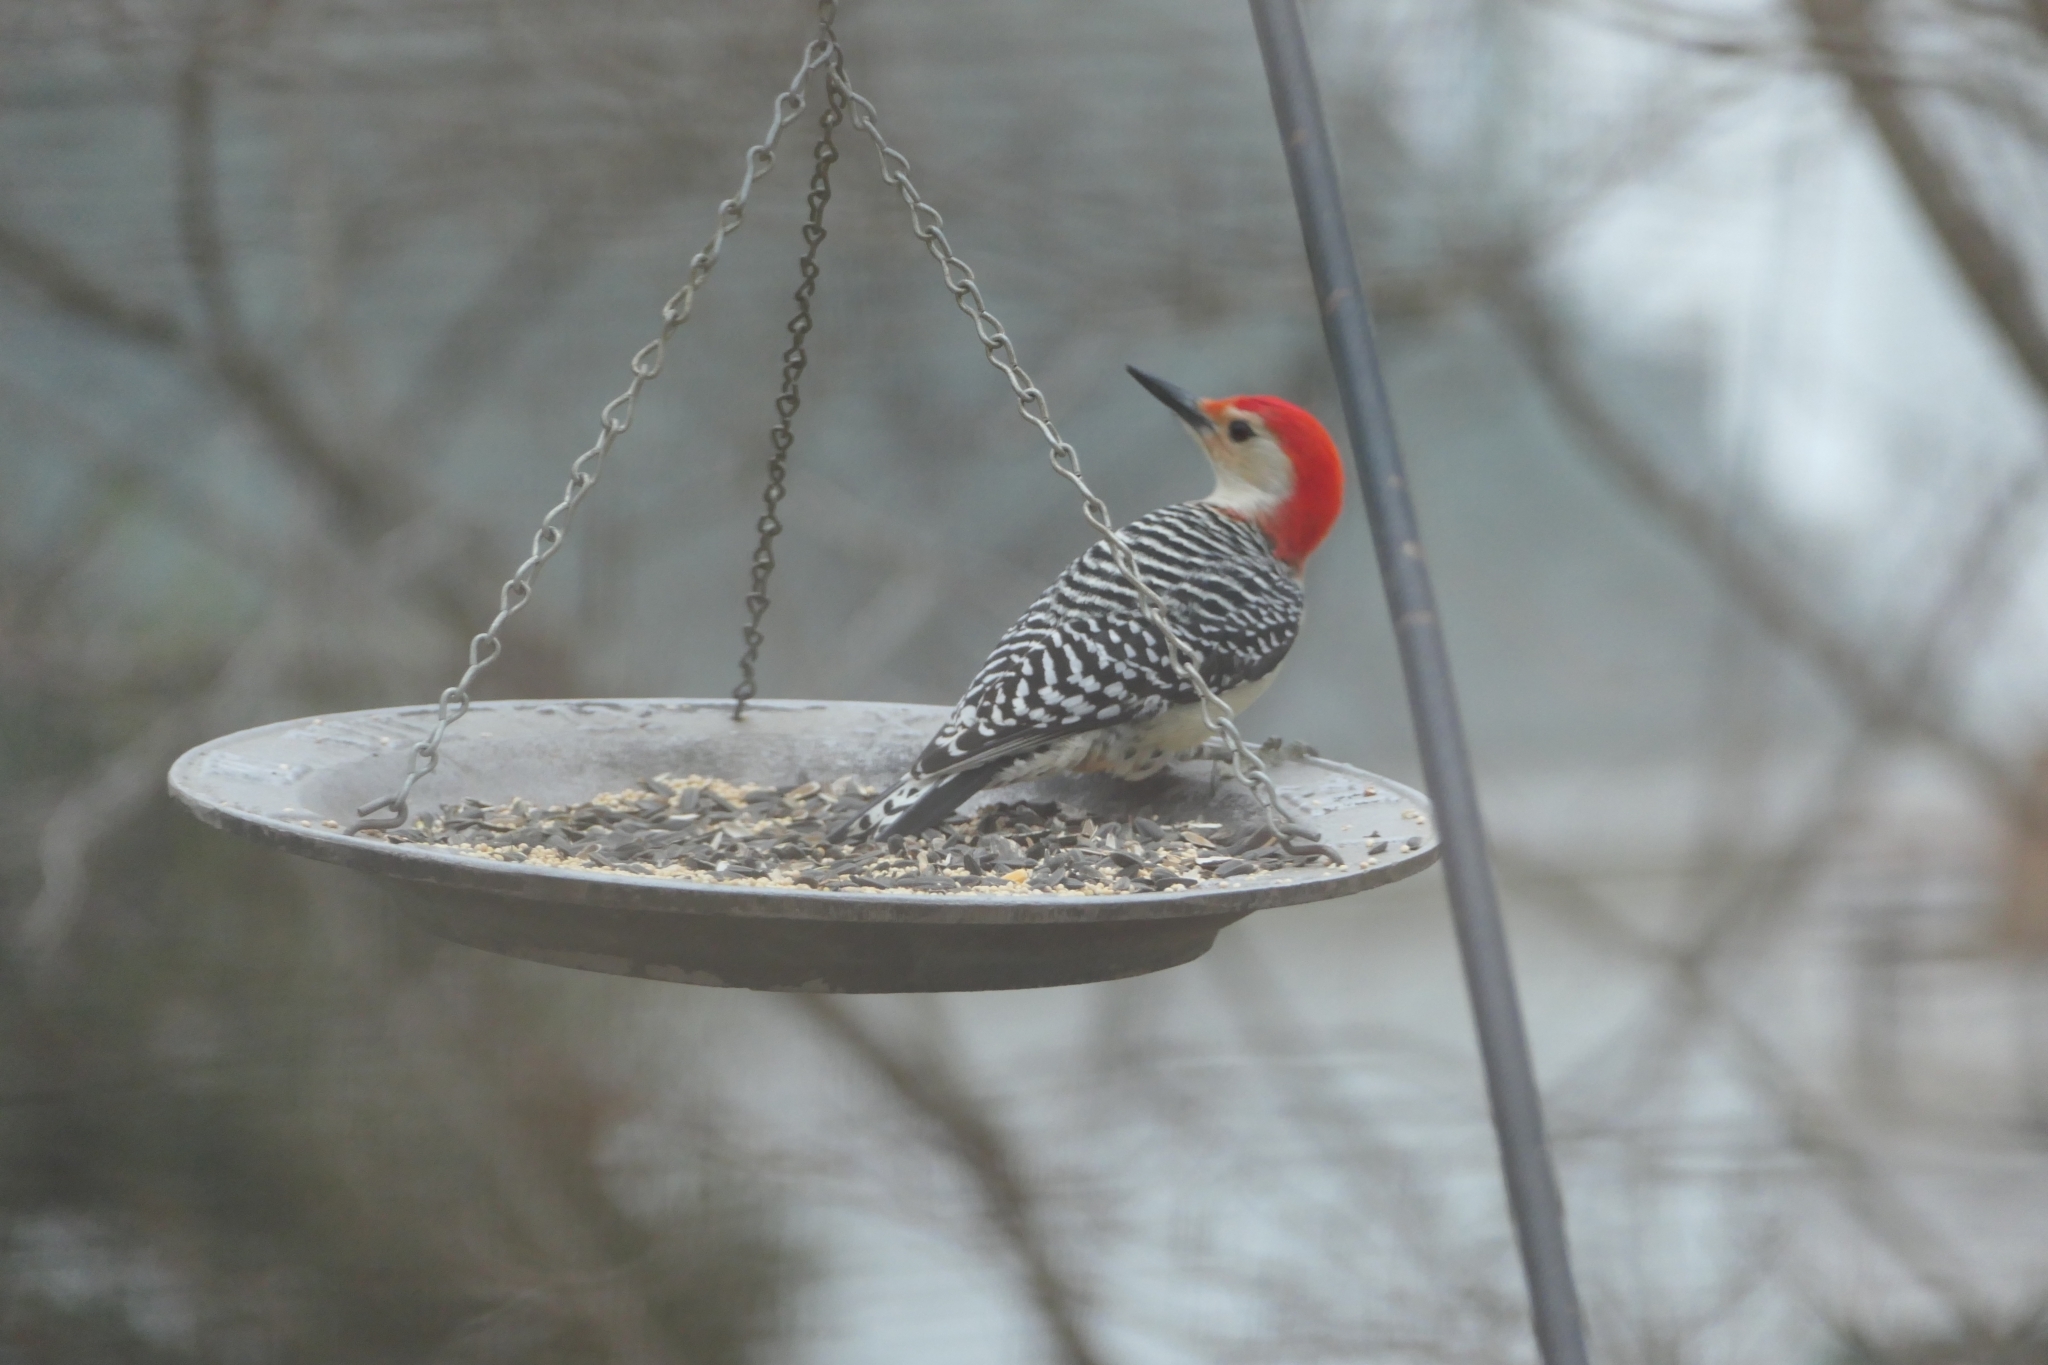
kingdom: Animalia
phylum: Chordata
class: Aves
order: Piciformes
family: Picidae
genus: Melanerpes
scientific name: Melanerpes carolinus
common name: Red-bellied woodpecker
